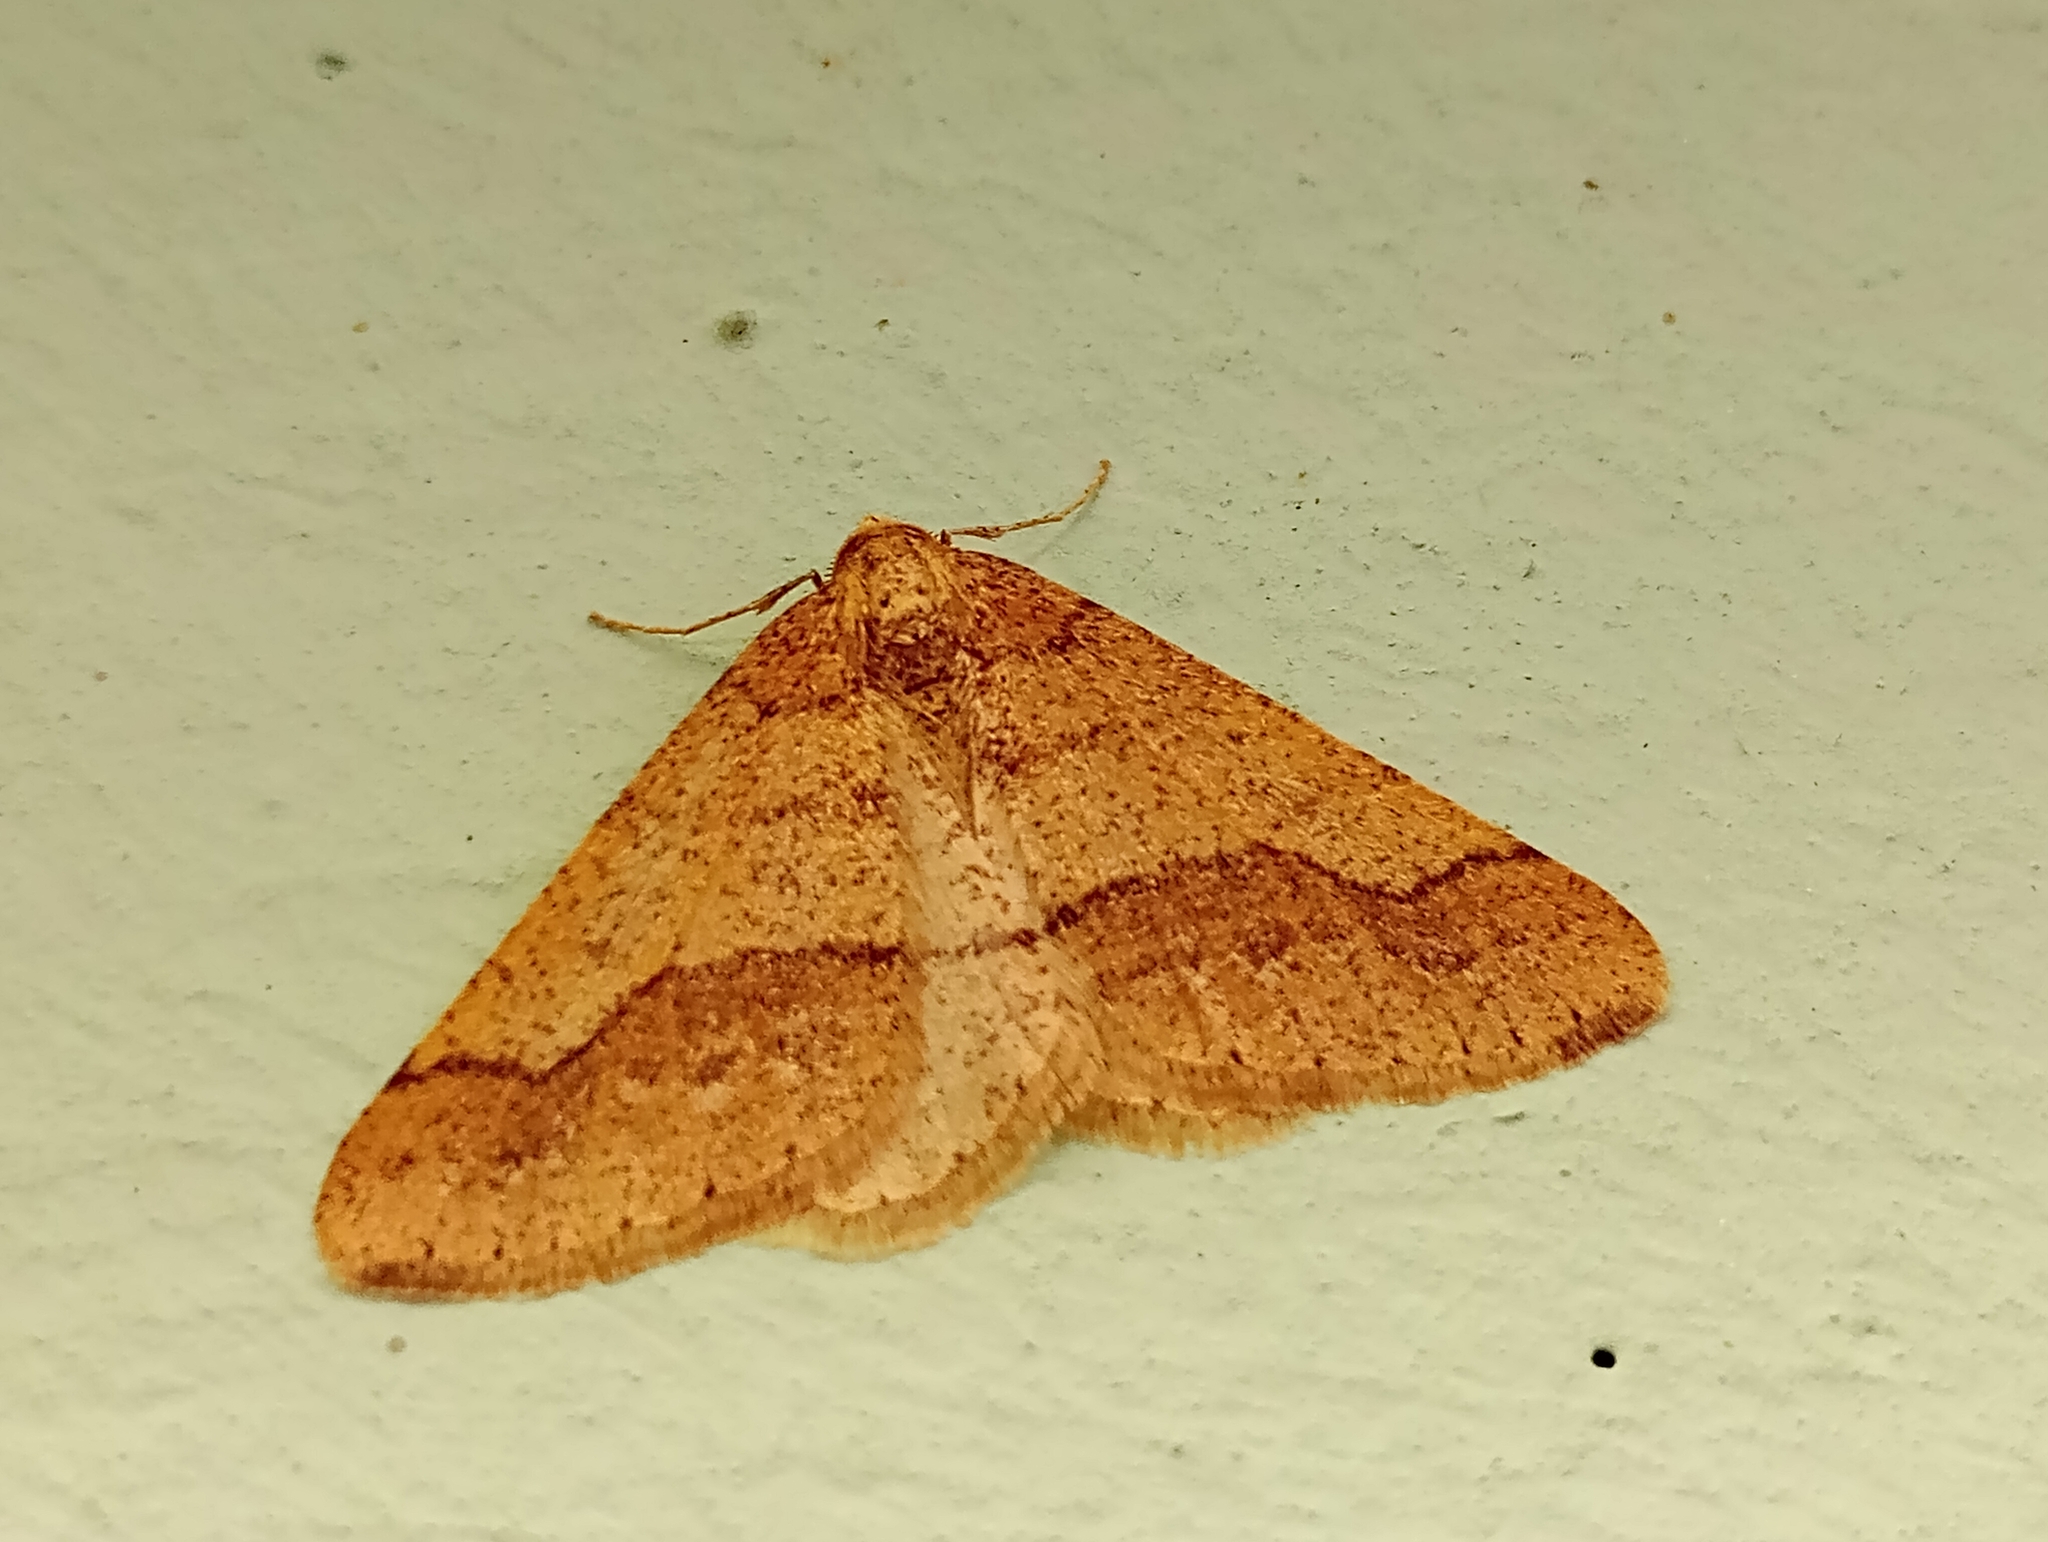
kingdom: Animalia
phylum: Arthropoda
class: Insecta
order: Lepidoptera
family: Geometridae
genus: Agriopis
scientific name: Agriopis marginaria
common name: Dotted border
